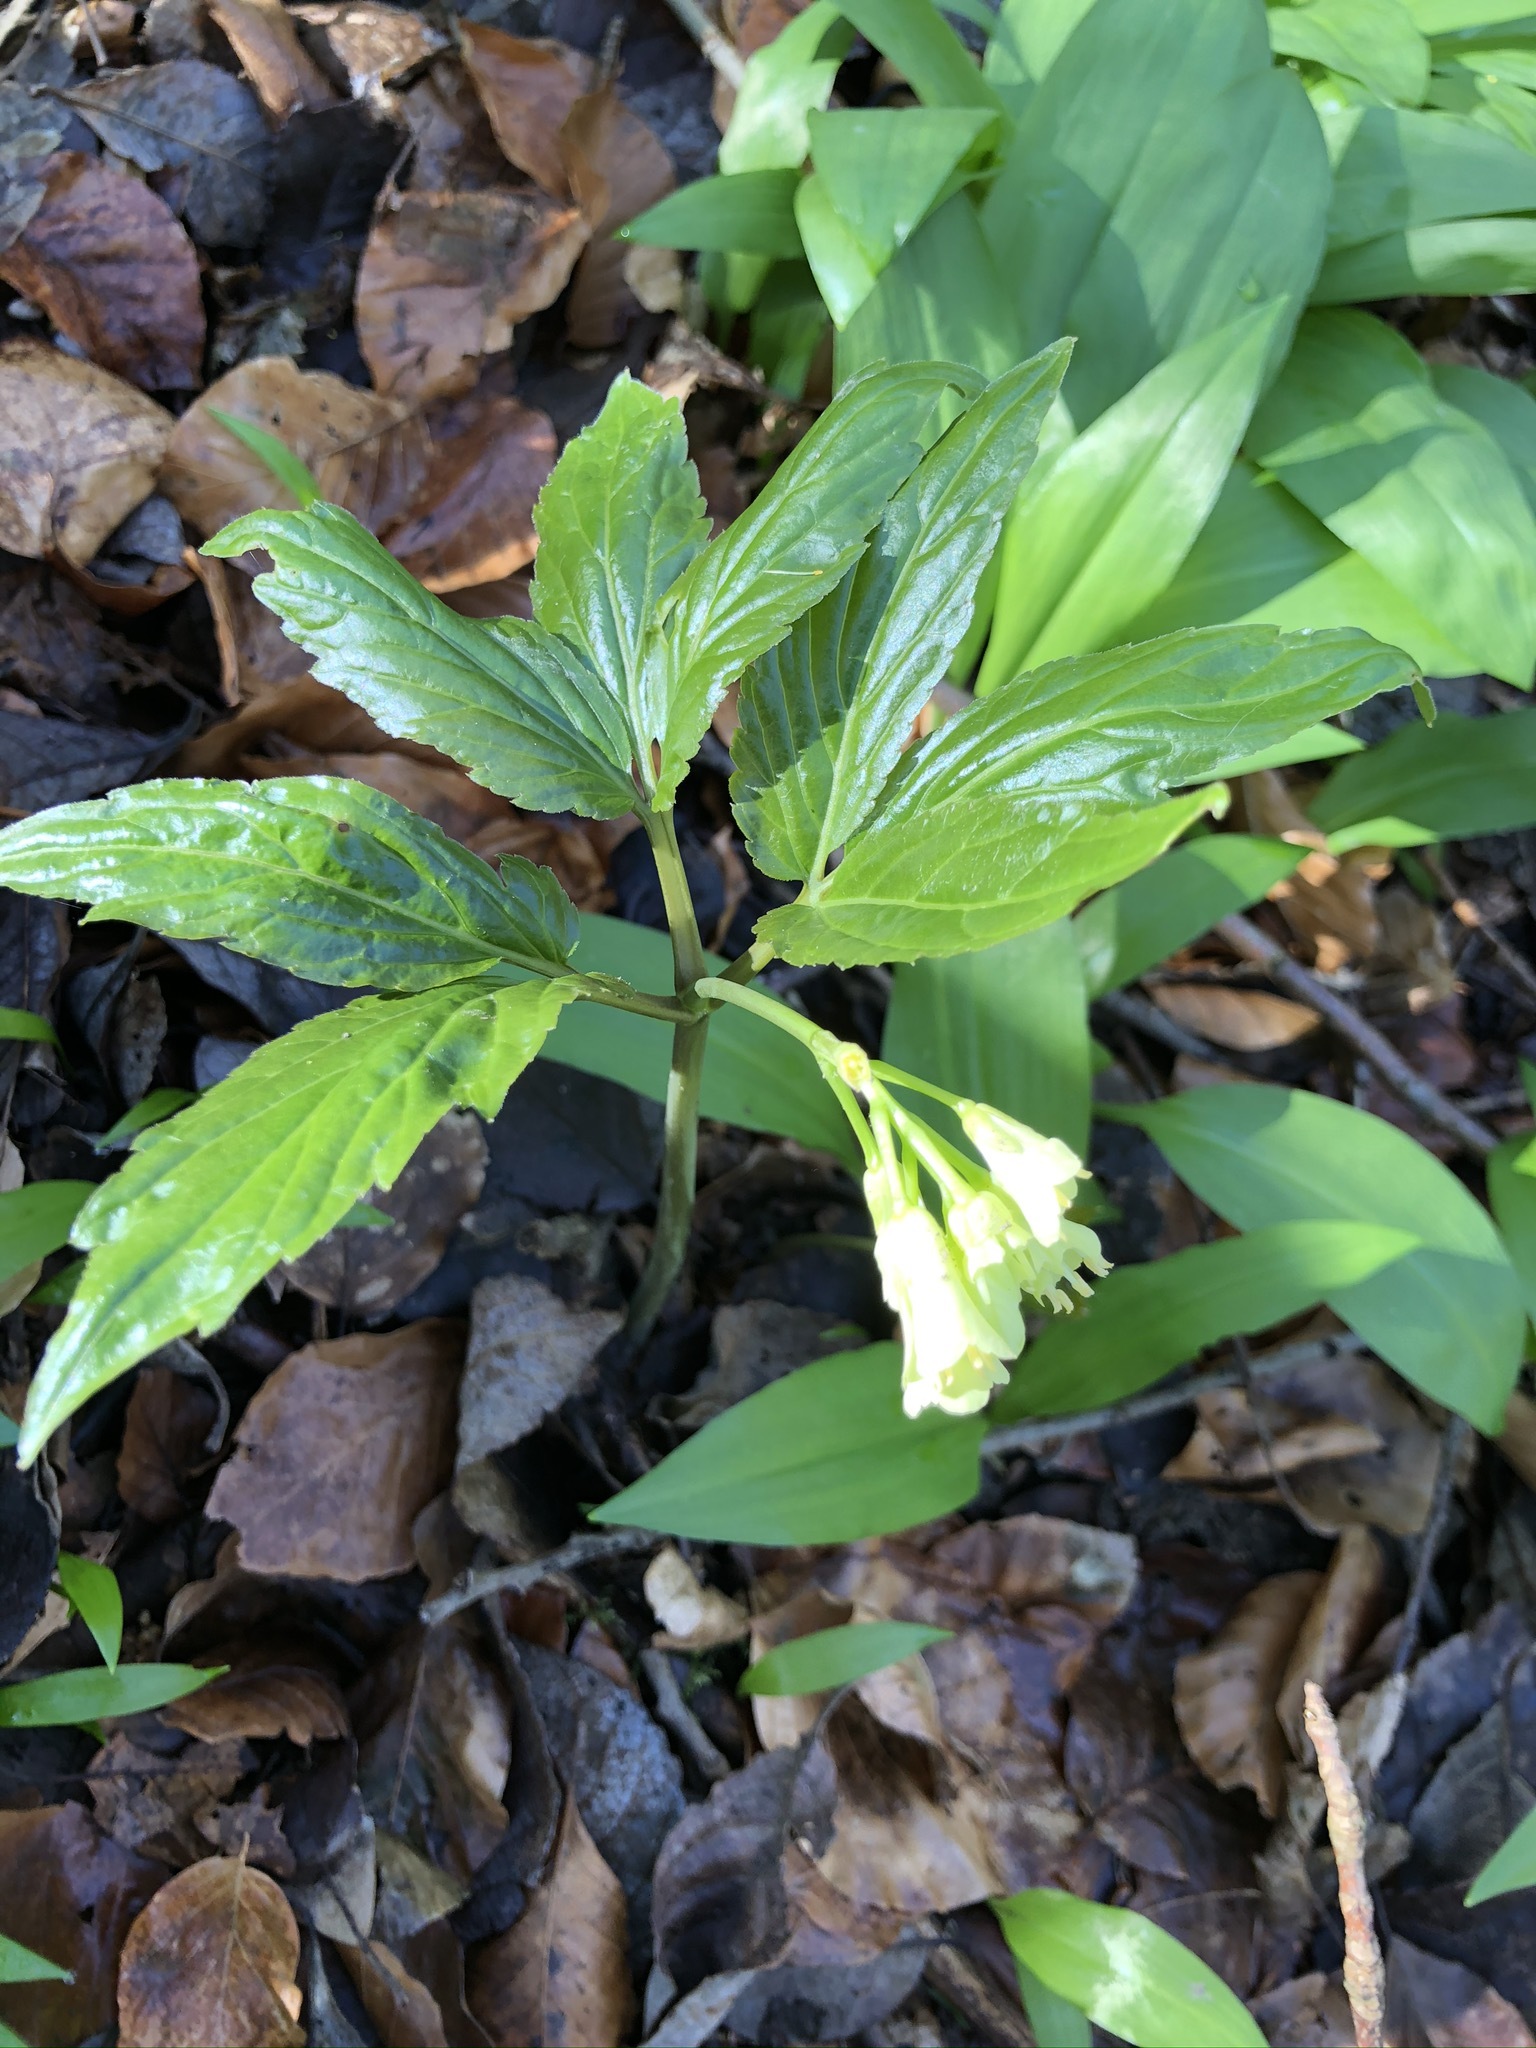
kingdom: Plantae
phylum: Tracheophyta
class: Magnoliopsida
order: Brassicales
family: Brassicaceae
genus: Cardamine
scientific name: Cardamine enneaphyllos
